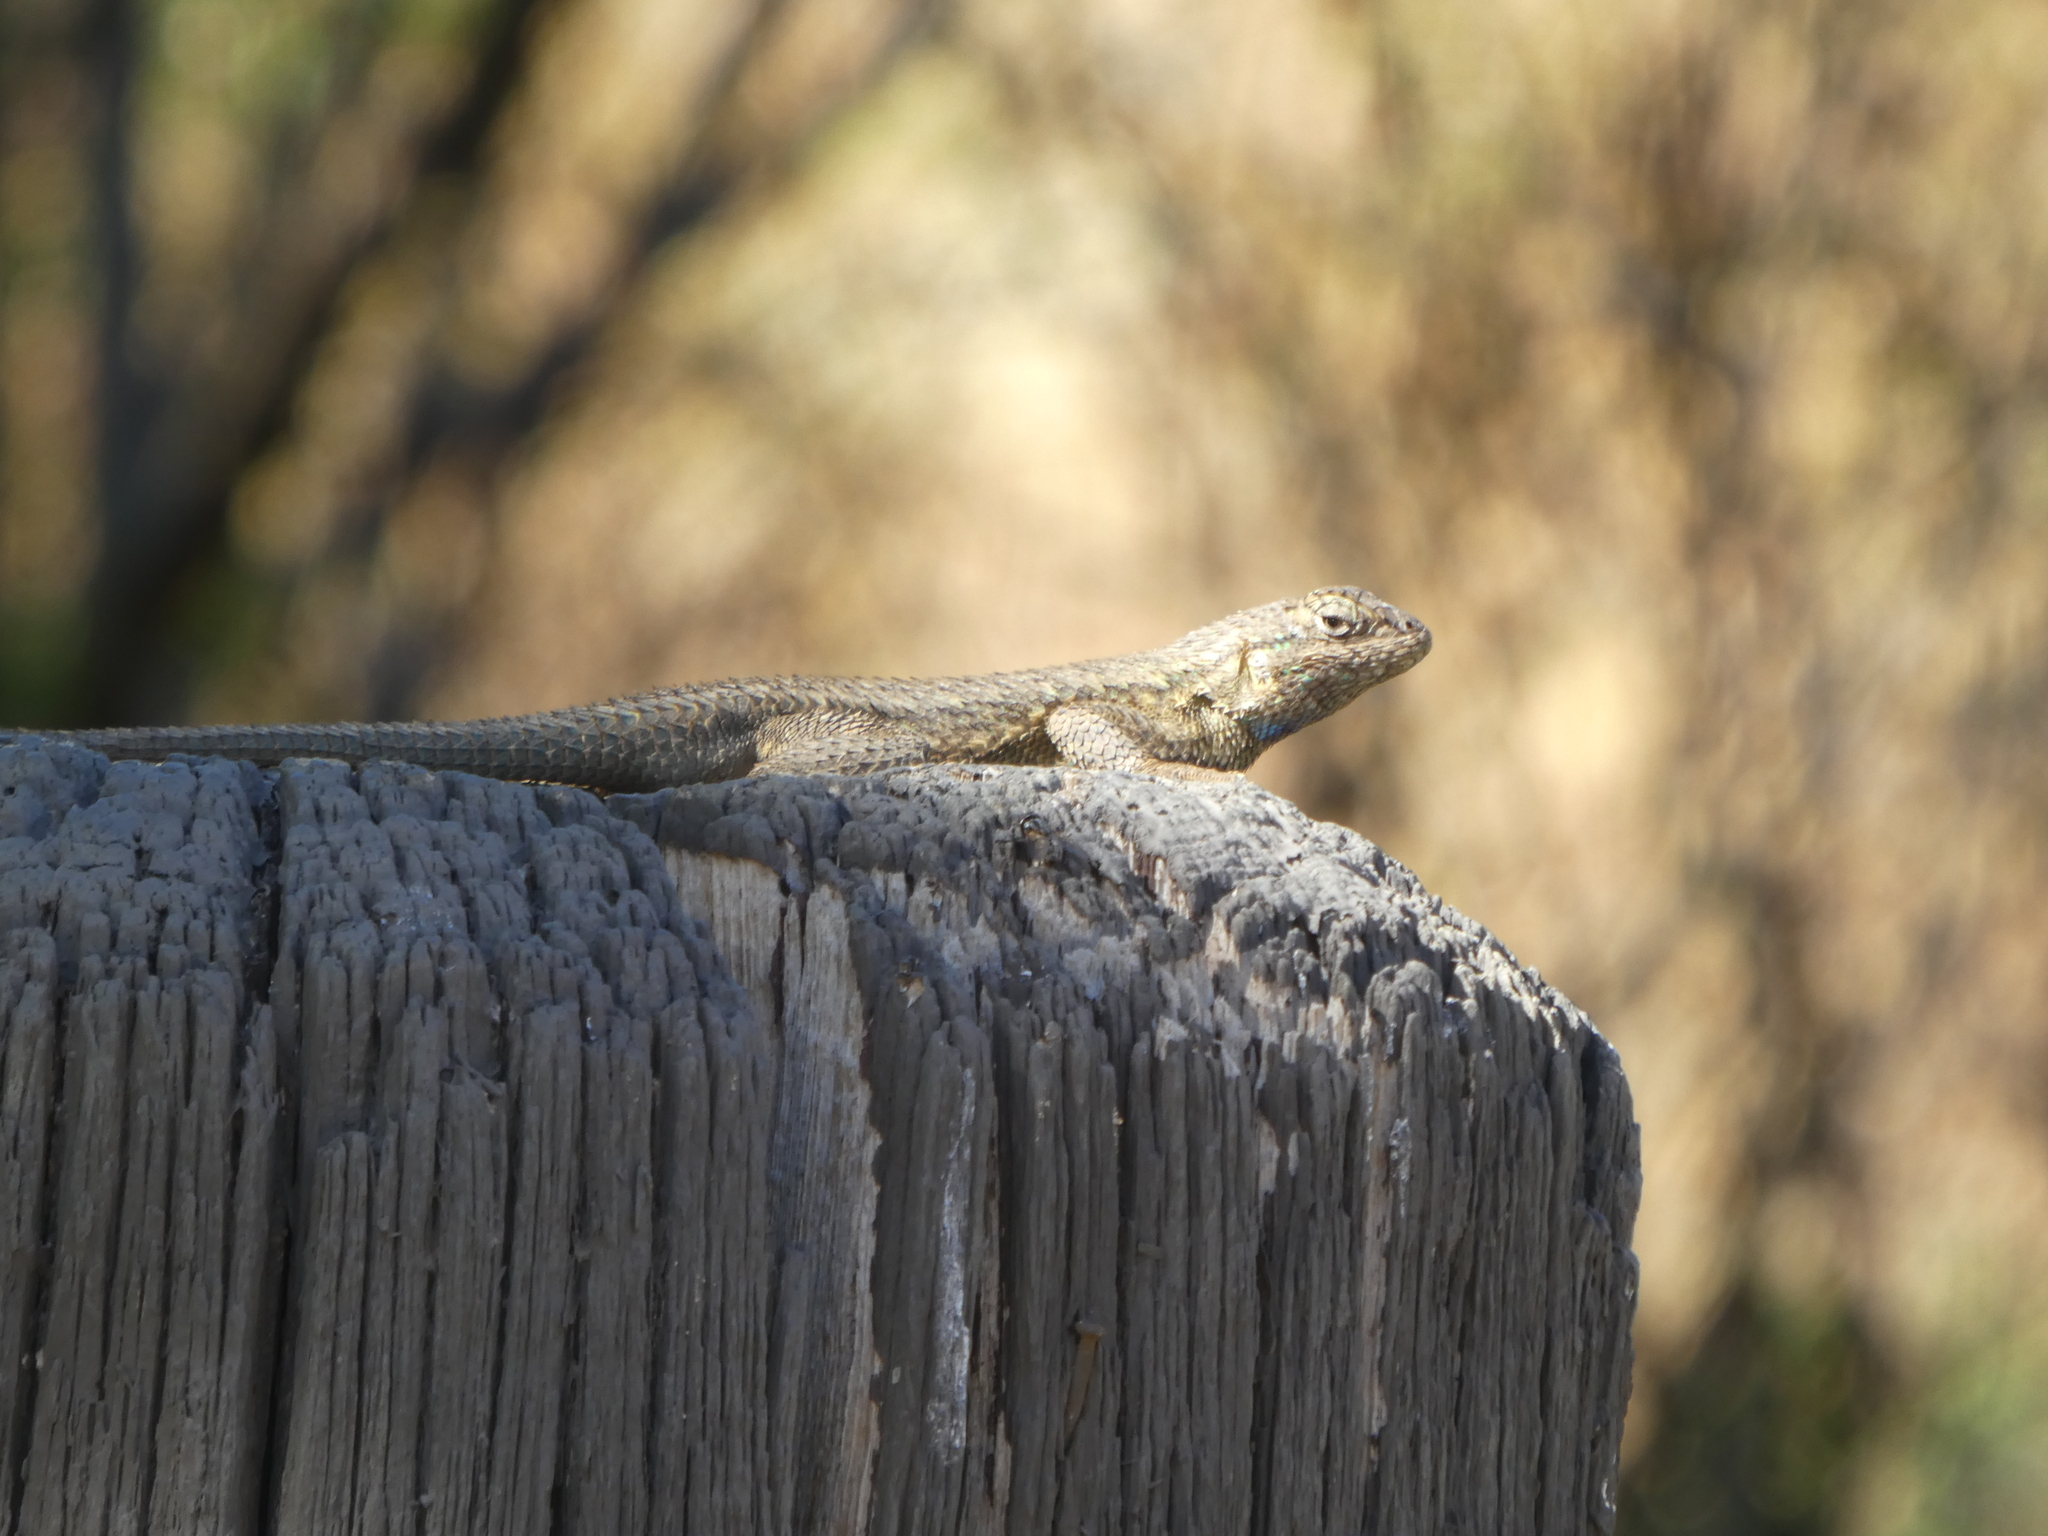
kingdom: Animalia
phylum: Chordata
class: Squamata
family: Phrynosomatidae
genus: Sceloporus
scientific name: Sceloporus occidentalis
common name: Western fence lizard
